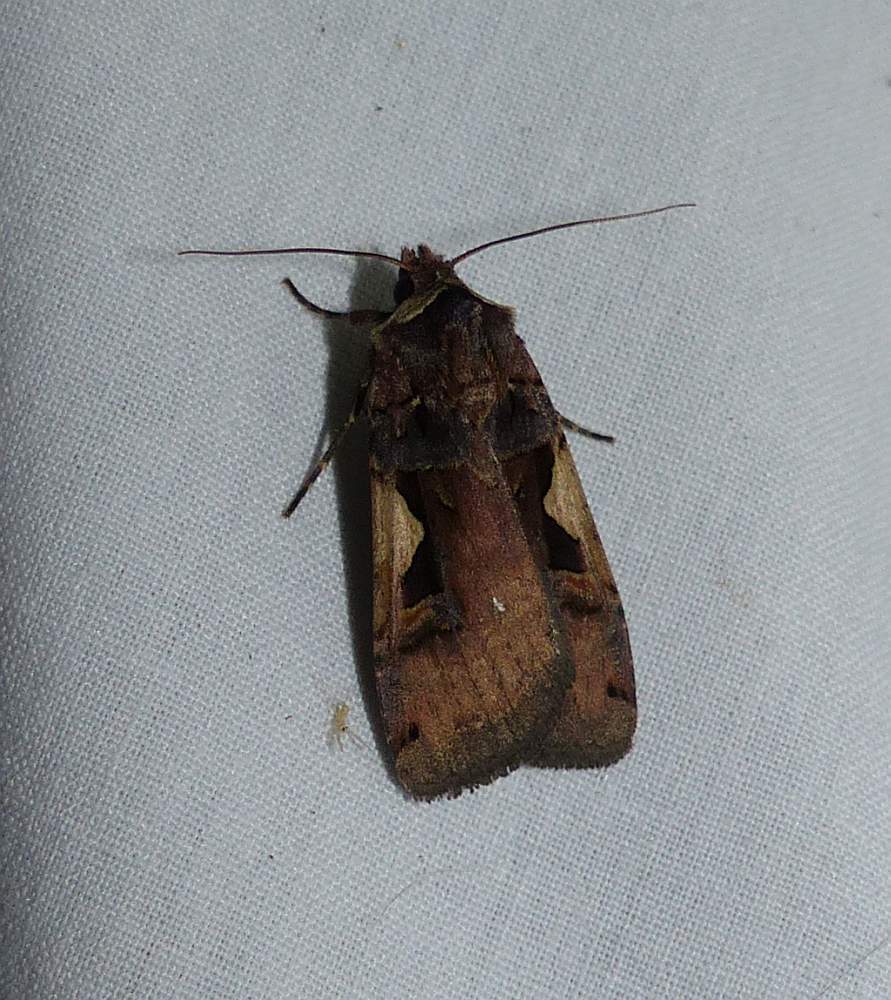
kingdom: Animalia
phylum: Arthropoda
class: Insecta
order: Lepidoptera
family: Noctuidae
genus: Xestia
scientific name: Xestia
